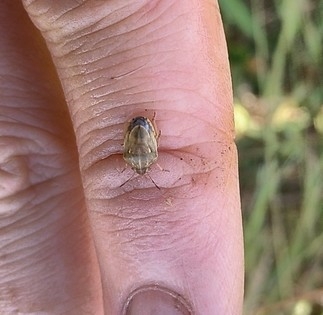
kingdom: Animalia
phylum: Arthropoda
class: Insecta
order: Hemiptera
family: Pentatomidae
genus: Neottiglossa
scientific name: Neottiglossa leporina
